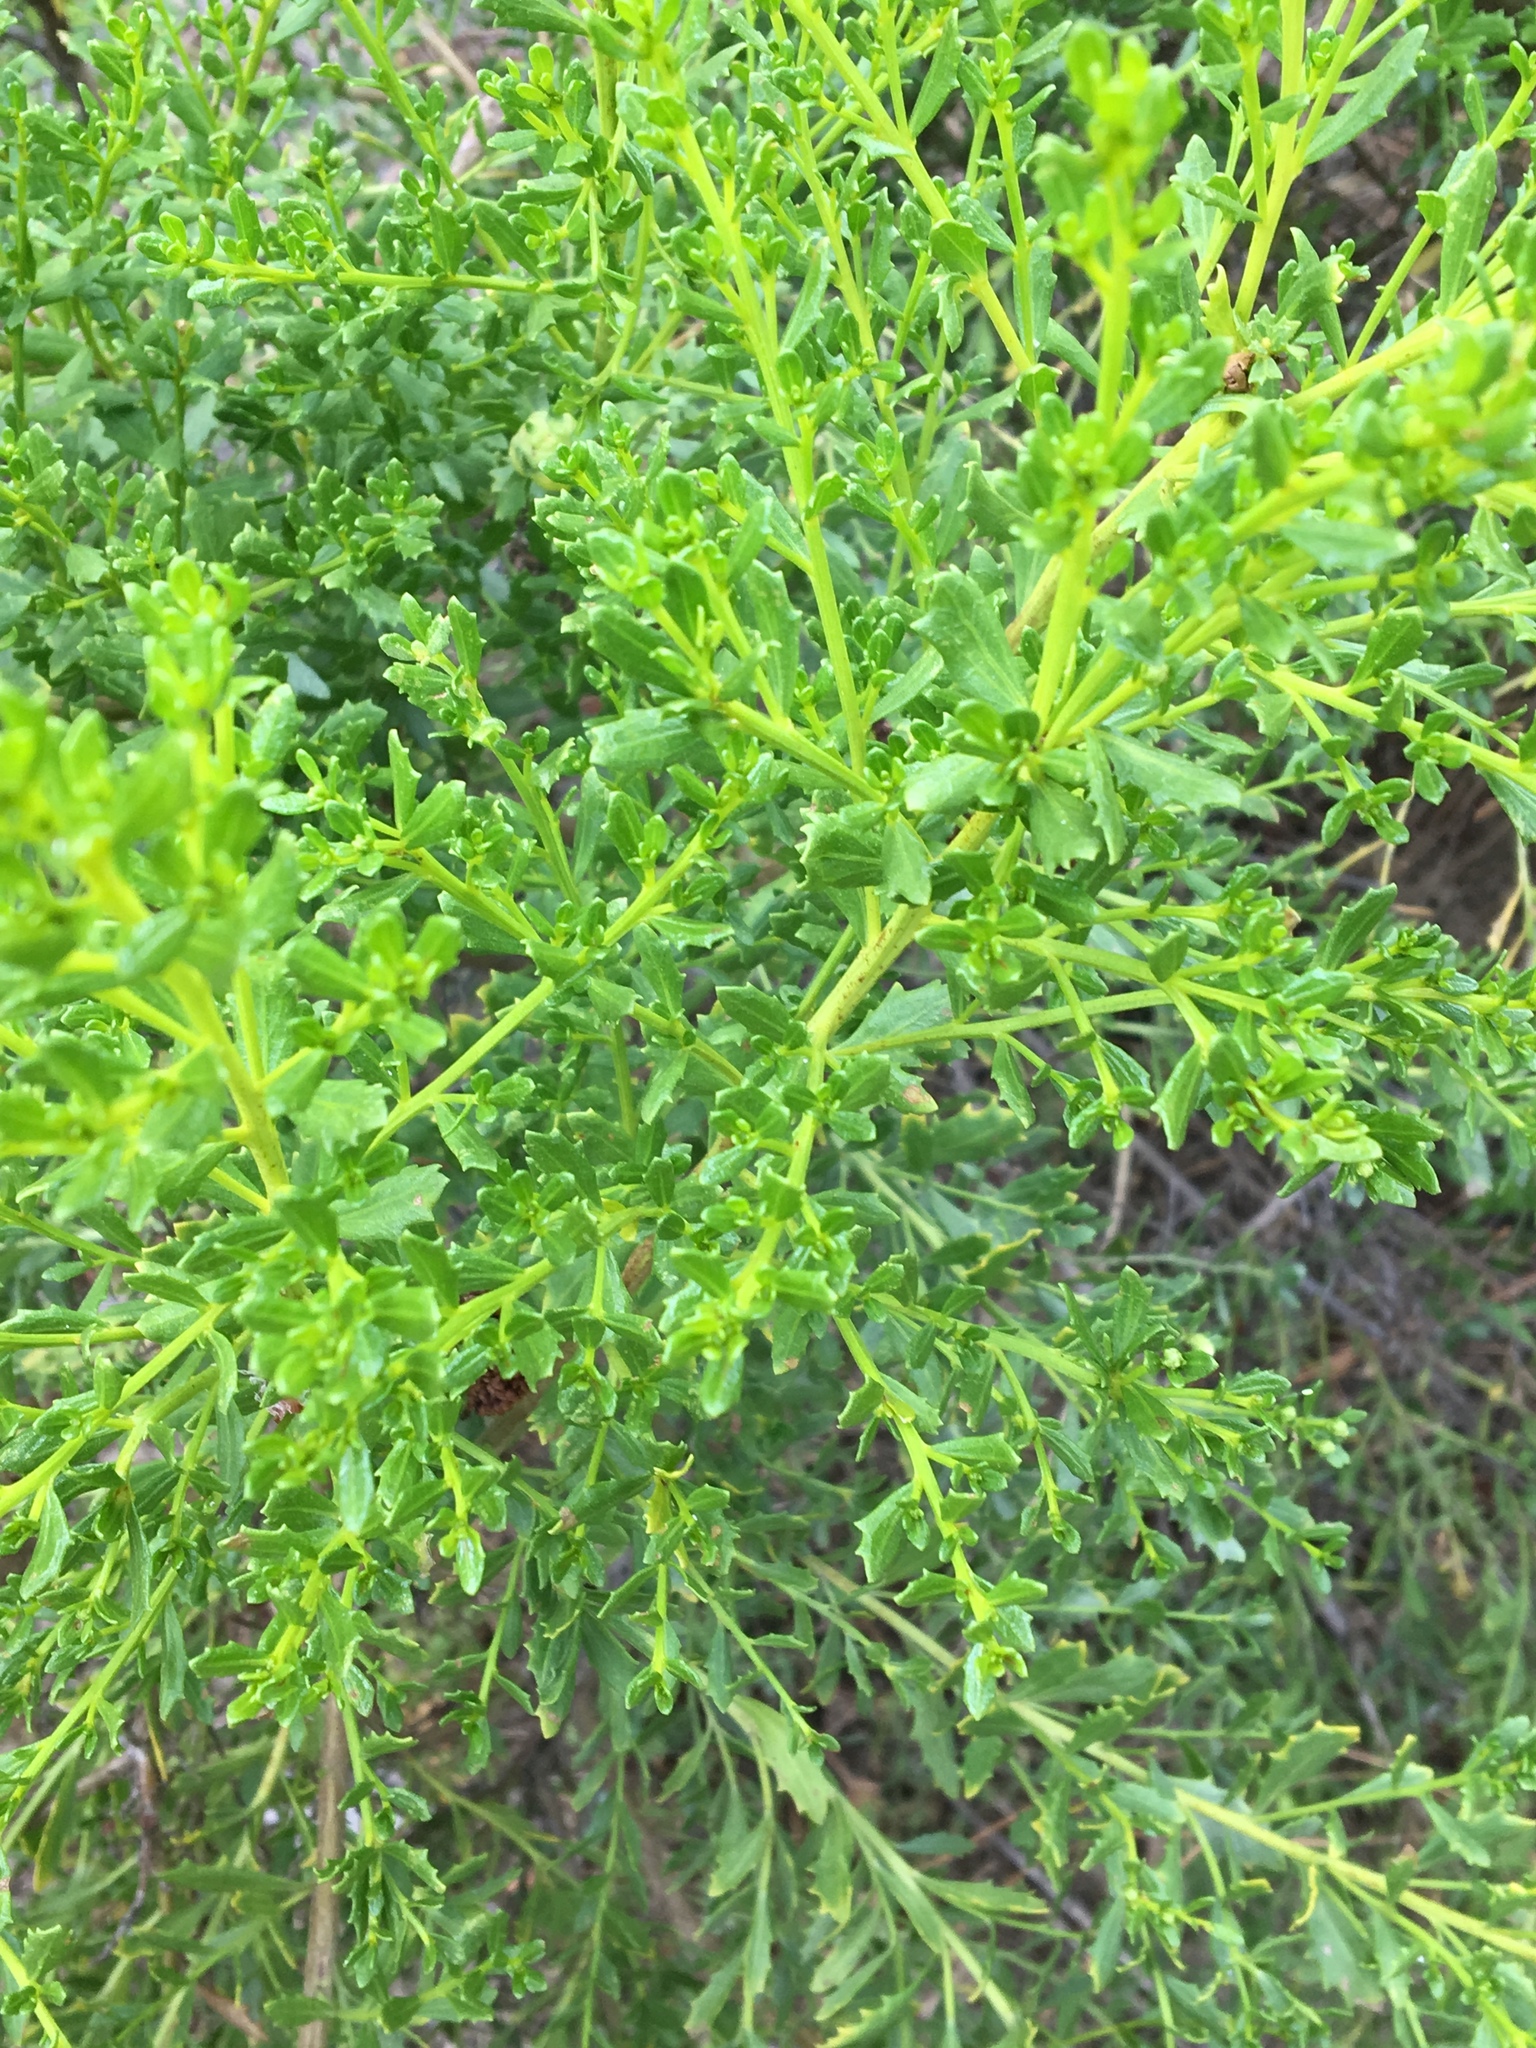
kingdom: Plantae
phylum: Tracheophyta
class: Magnoliopsida
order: Asterales
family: Asteraceae
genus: Baccharis
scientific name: Baccharis pilularis
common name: Coyotebrush
